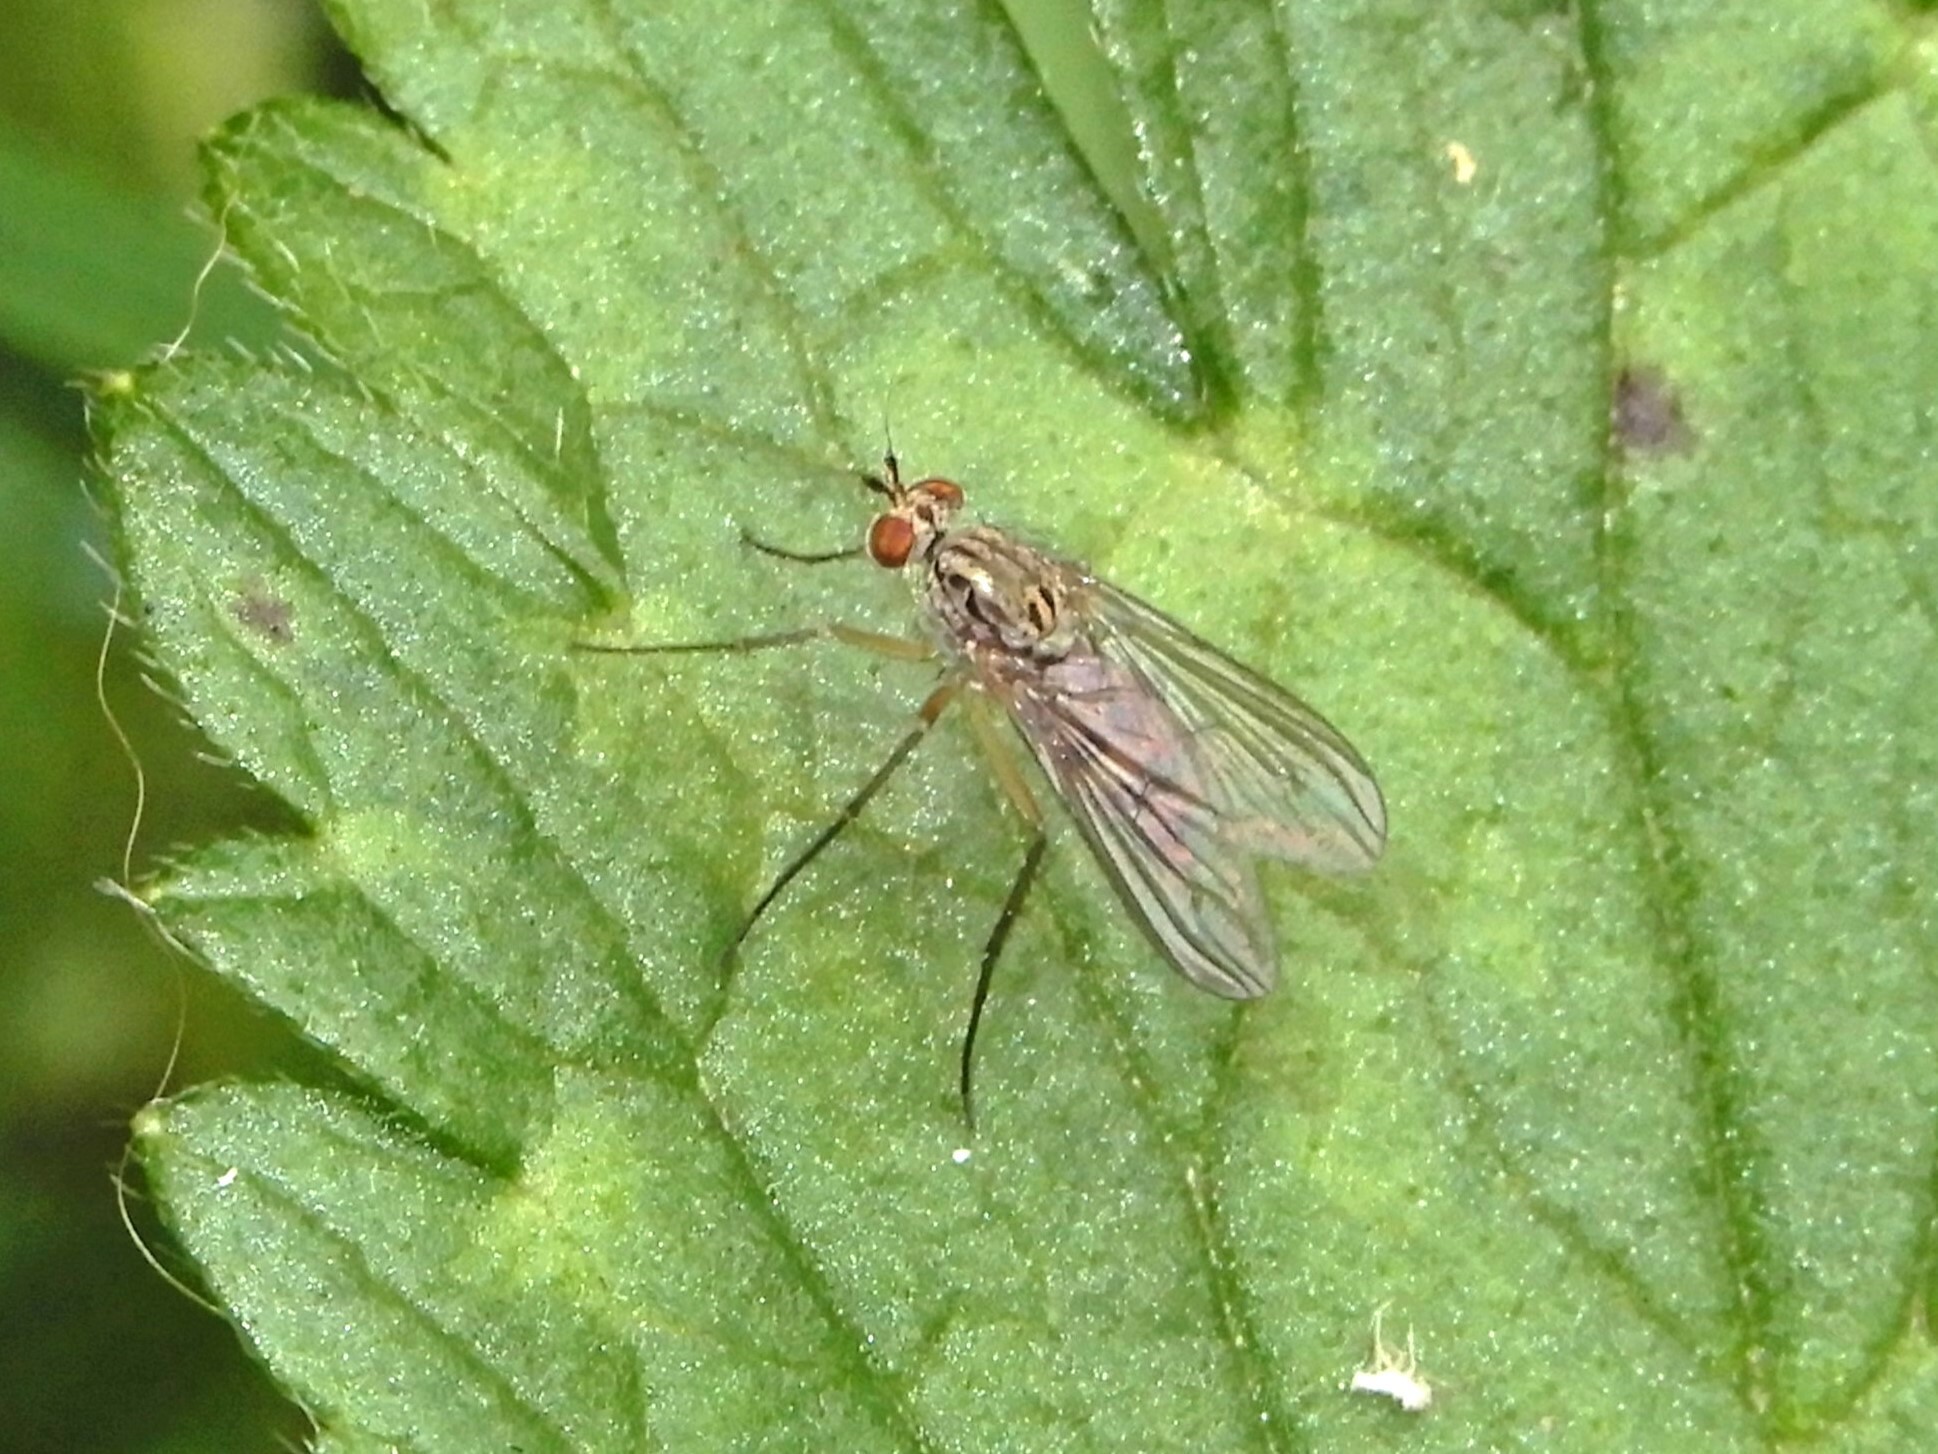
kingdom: Animalia
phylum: Arthropoda
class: Insecta
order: Diptera
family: Dolichopodidae
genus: Dactylonotus
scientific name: Dactylonotus
